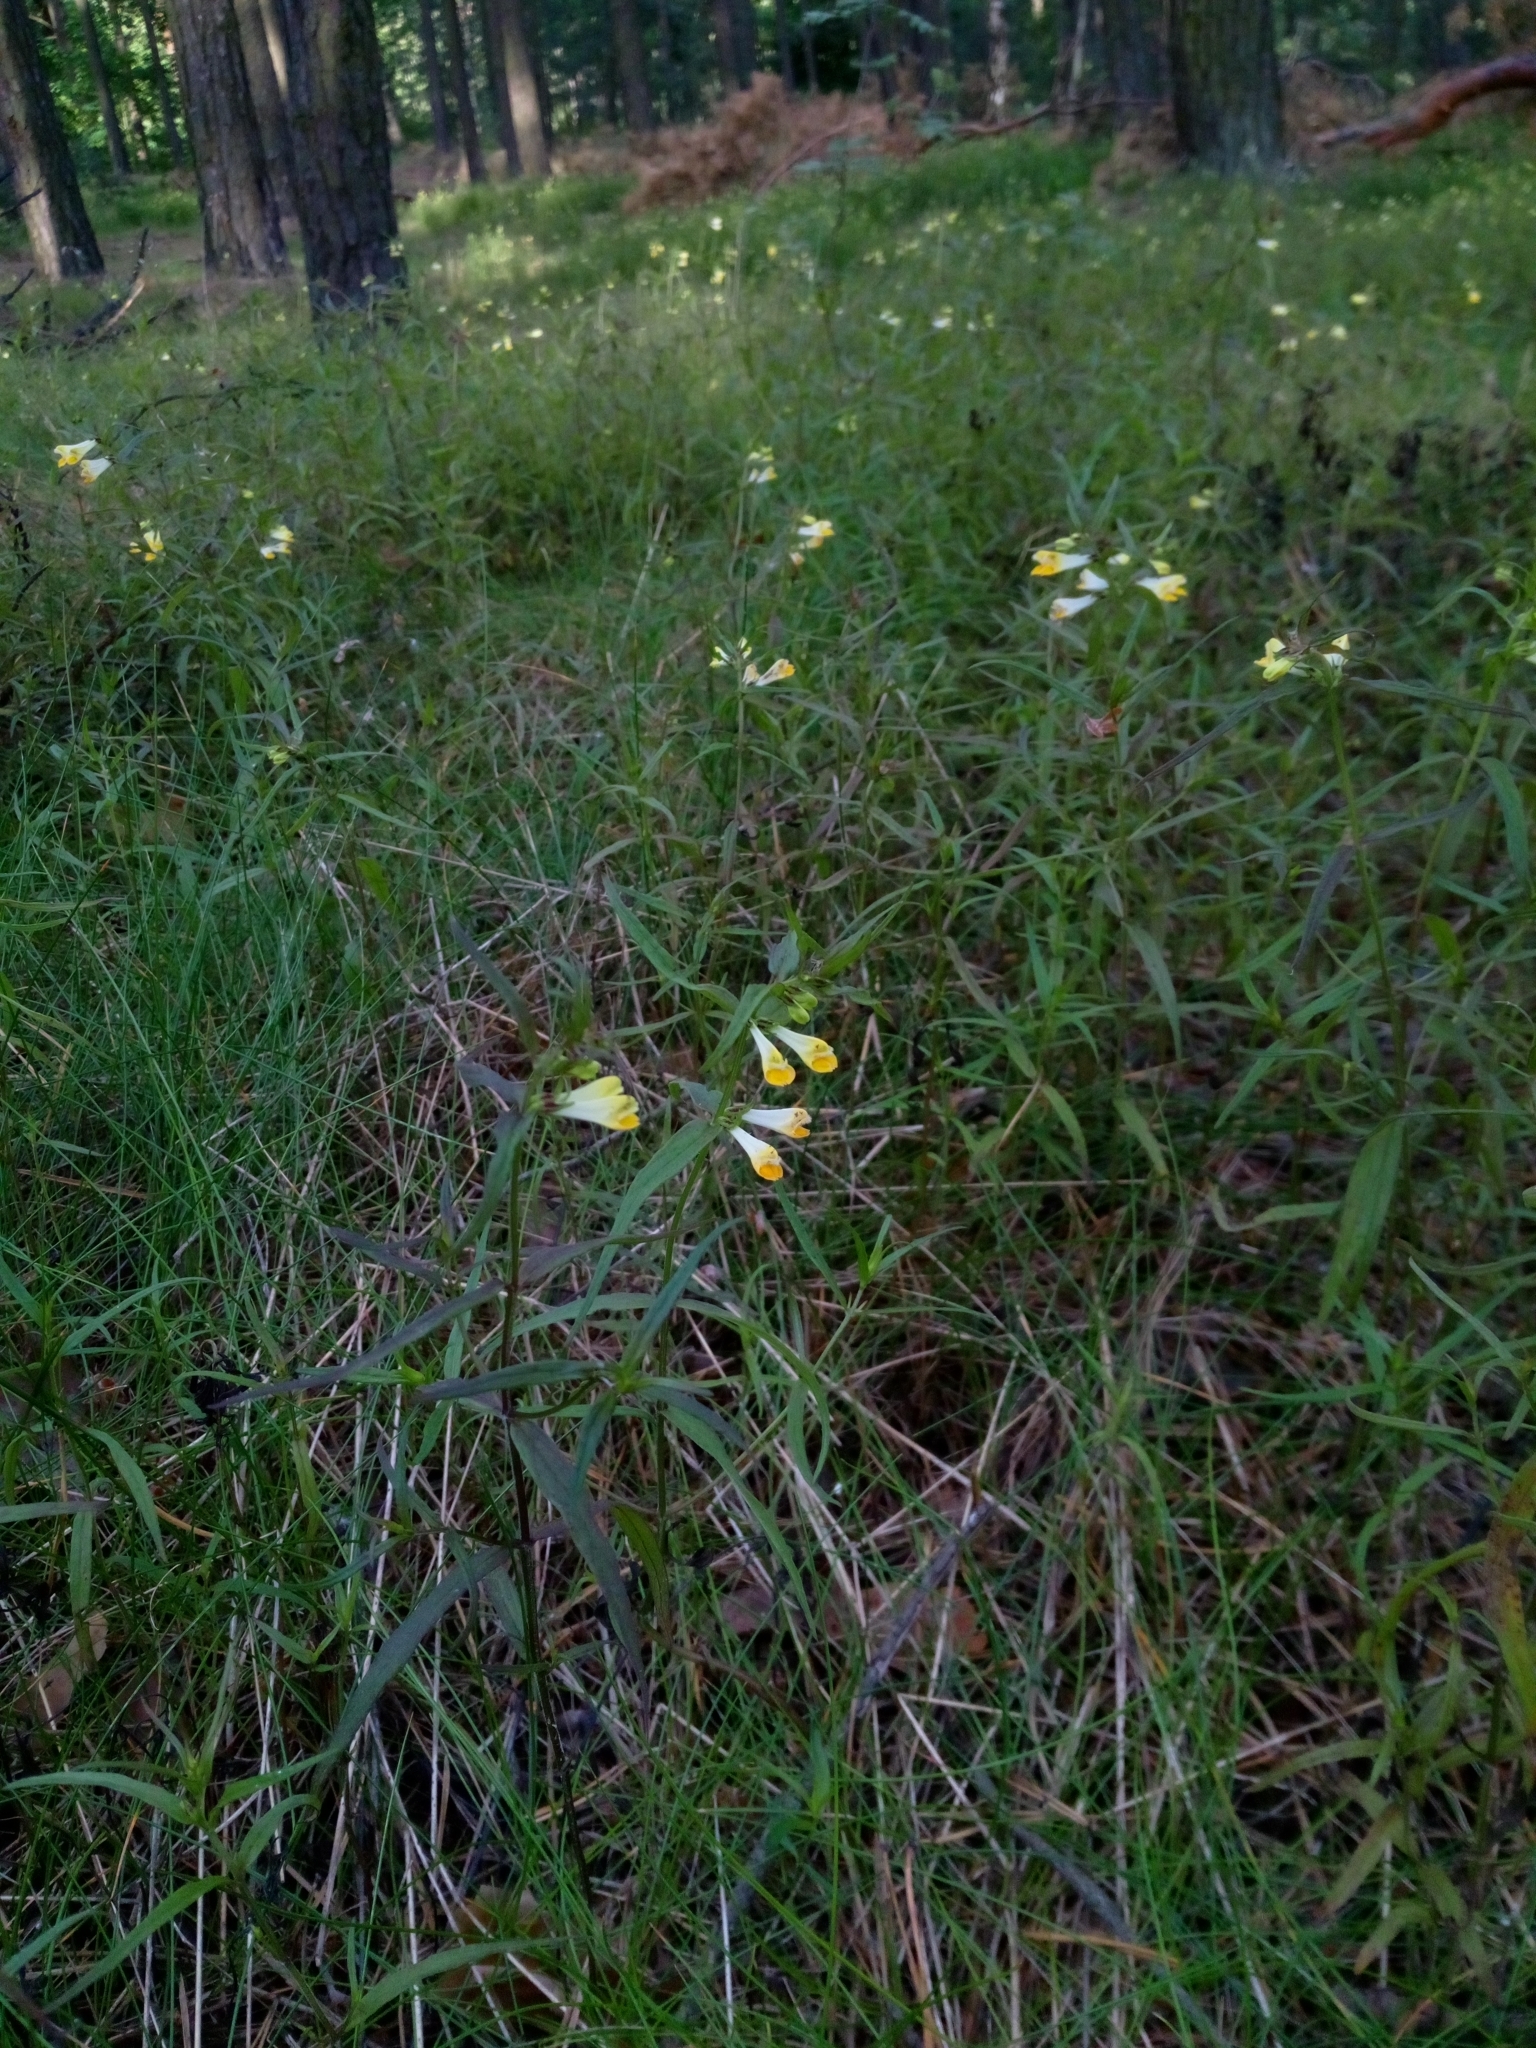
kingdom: Plantae
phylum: Tracheophyta
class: Magnoliopsida
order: Lamiales
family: Orobanchaceae
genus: Melampyrum
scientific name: Melampyrum pratense
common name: Common cow-wheat
